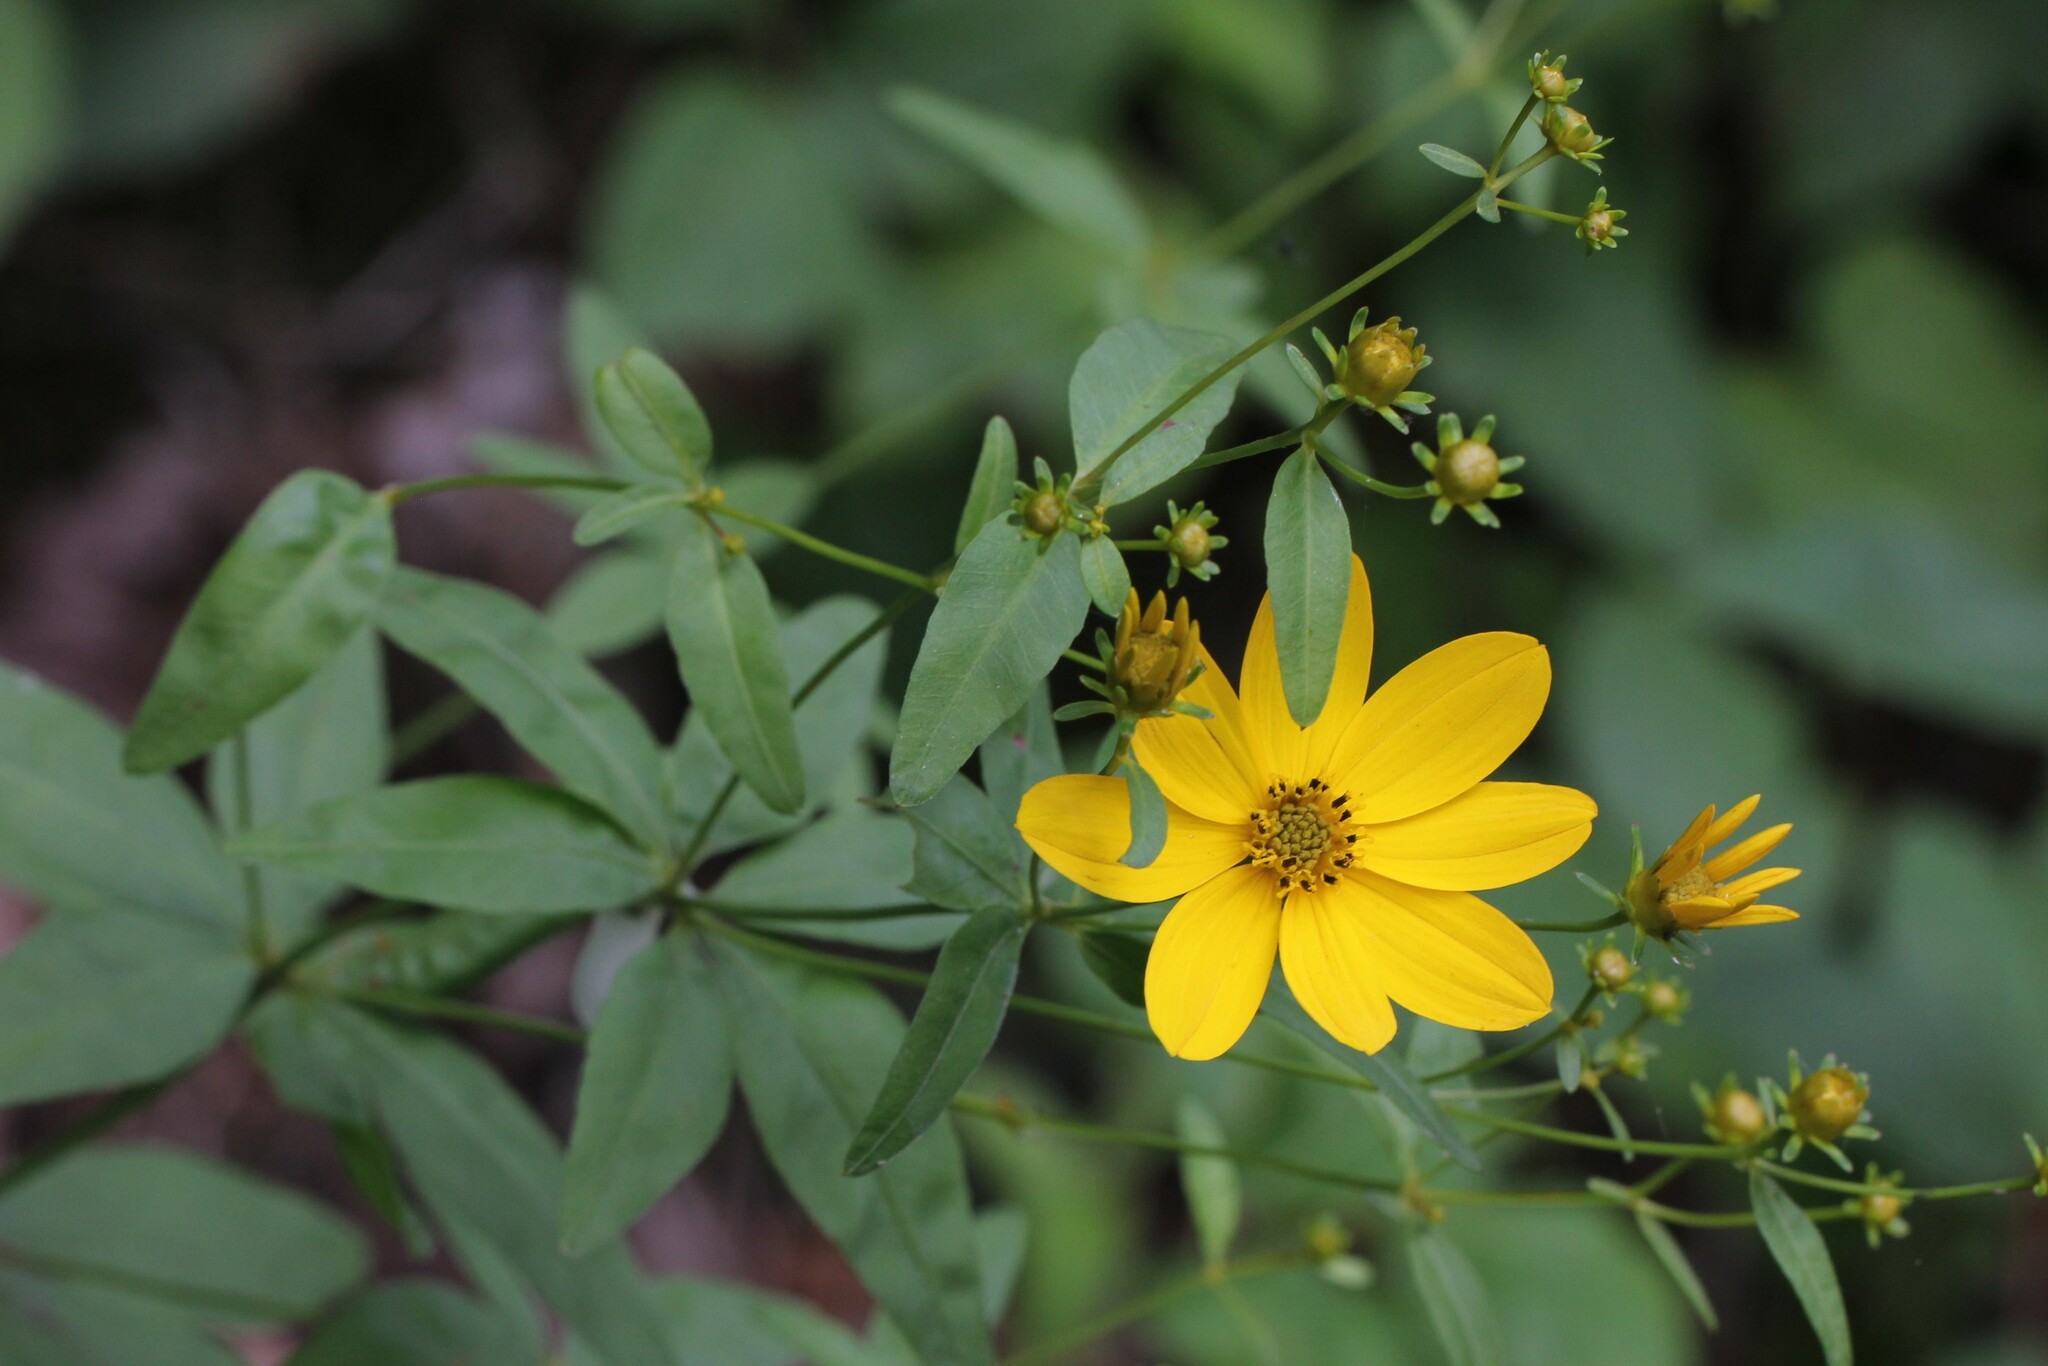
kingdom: Plantae
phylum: Tracheophyta
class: Magnoliopsida
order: Asterales
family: Asteraceae
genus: Coreopsis
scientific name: Coreopsis major
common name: Forest tickseed
